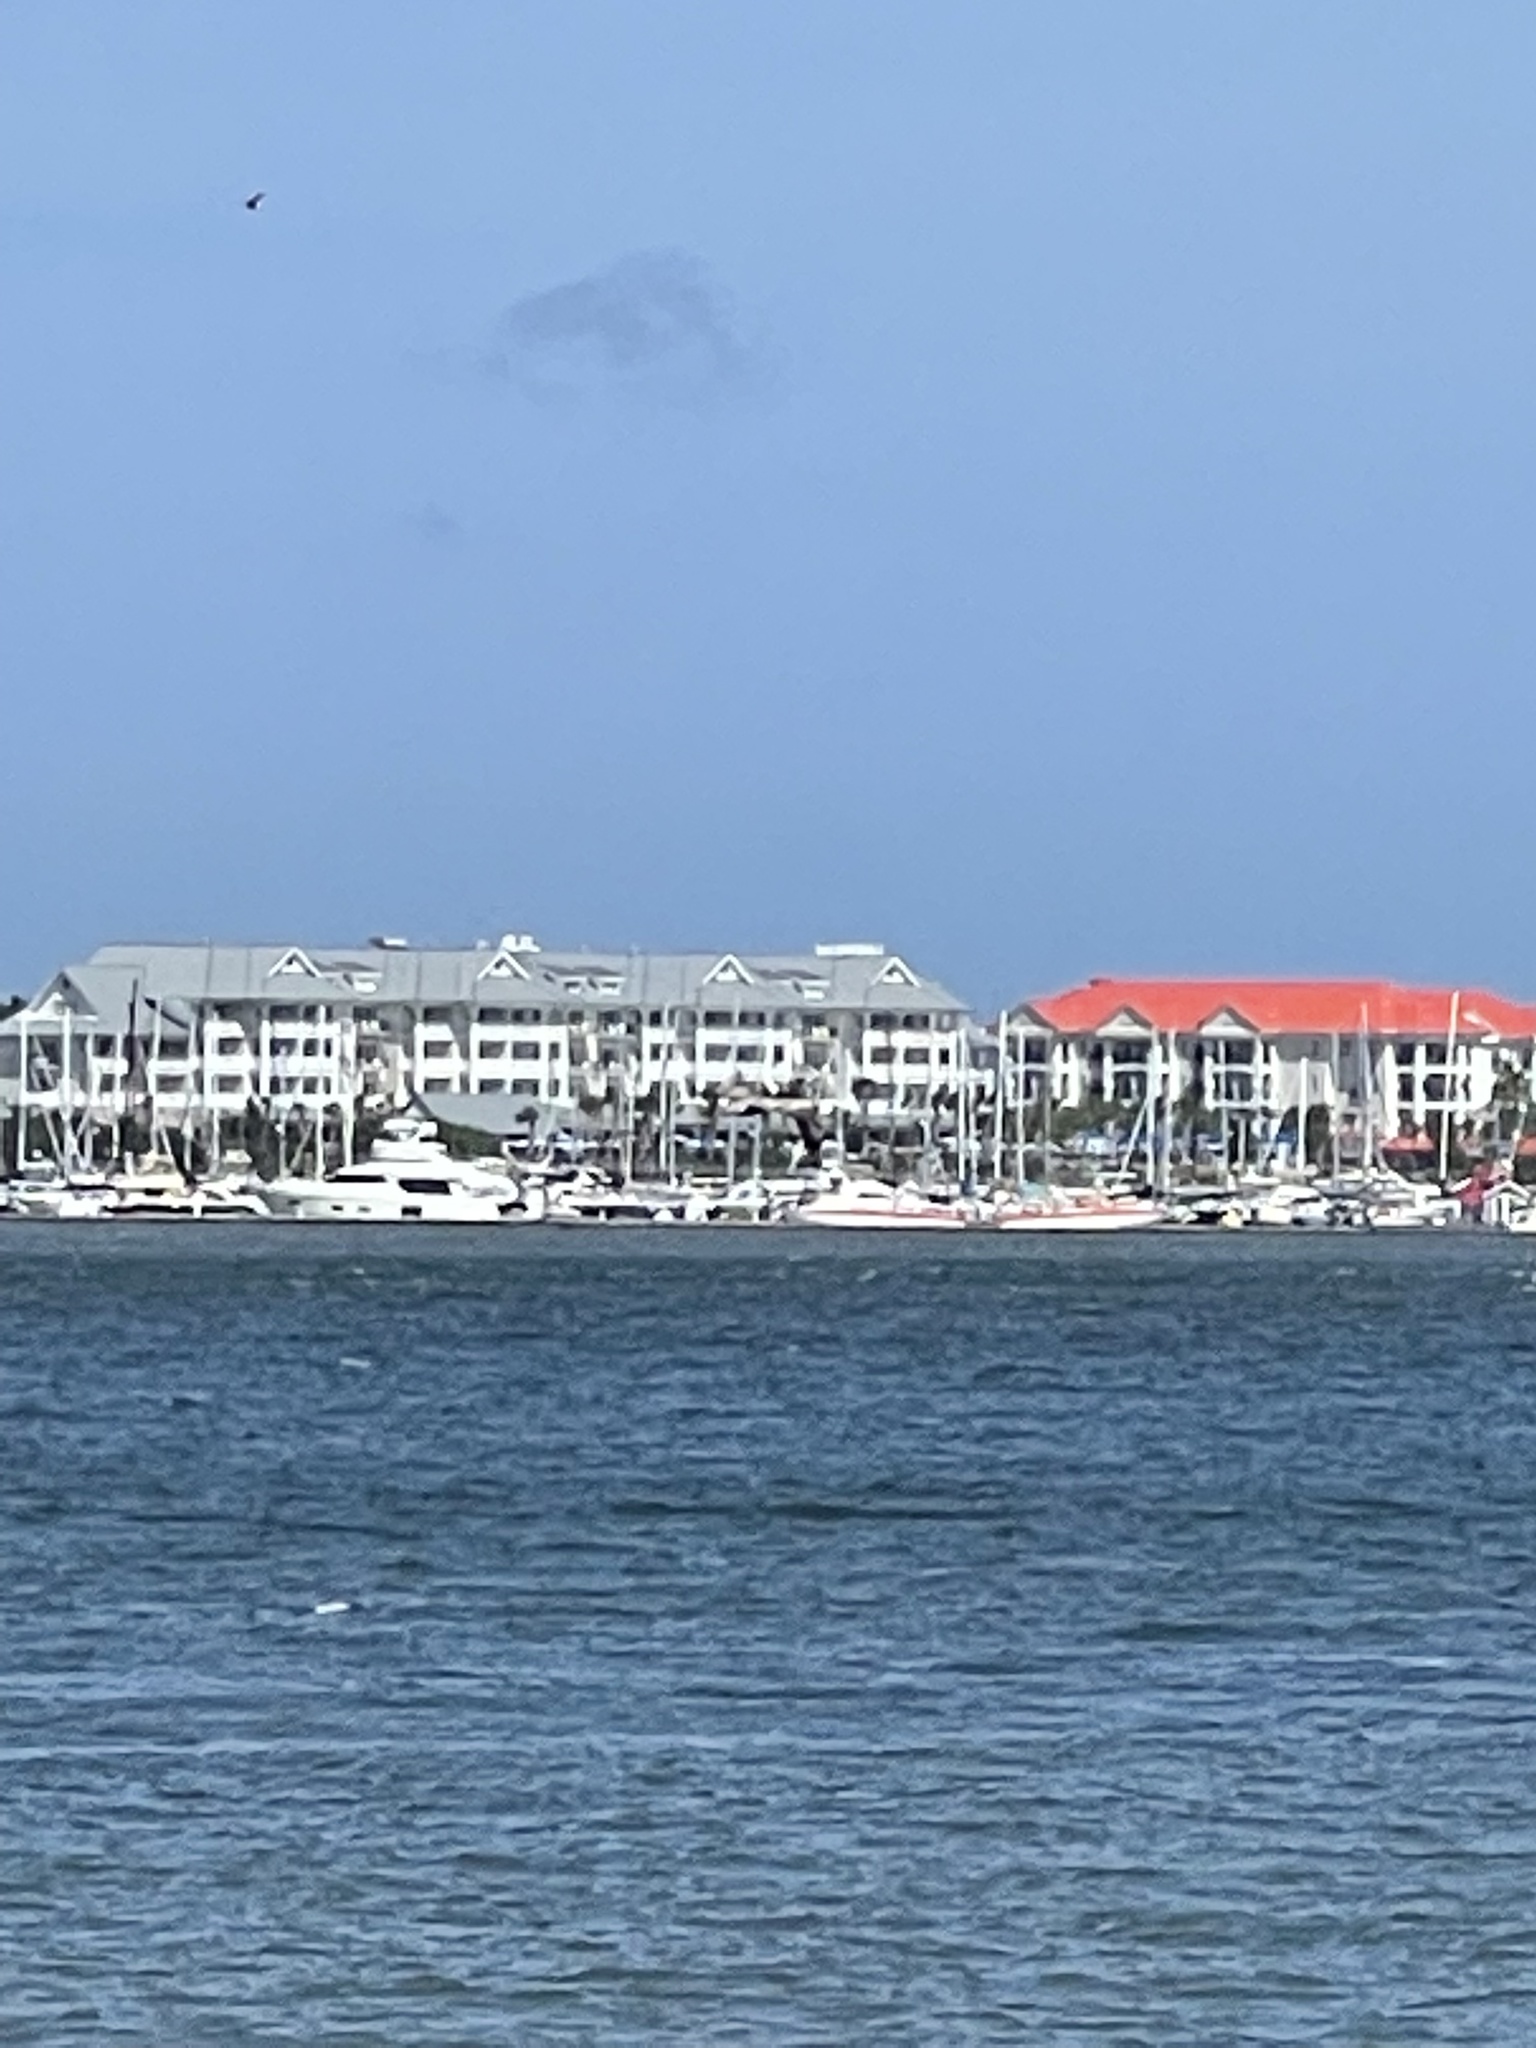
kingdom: Animalia
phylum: Chordata
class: Aves
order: Pelecaniformes
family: Pelecanidae
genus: Pelecanus
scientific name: Pelecanus occidentalis
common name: Brown pelican
